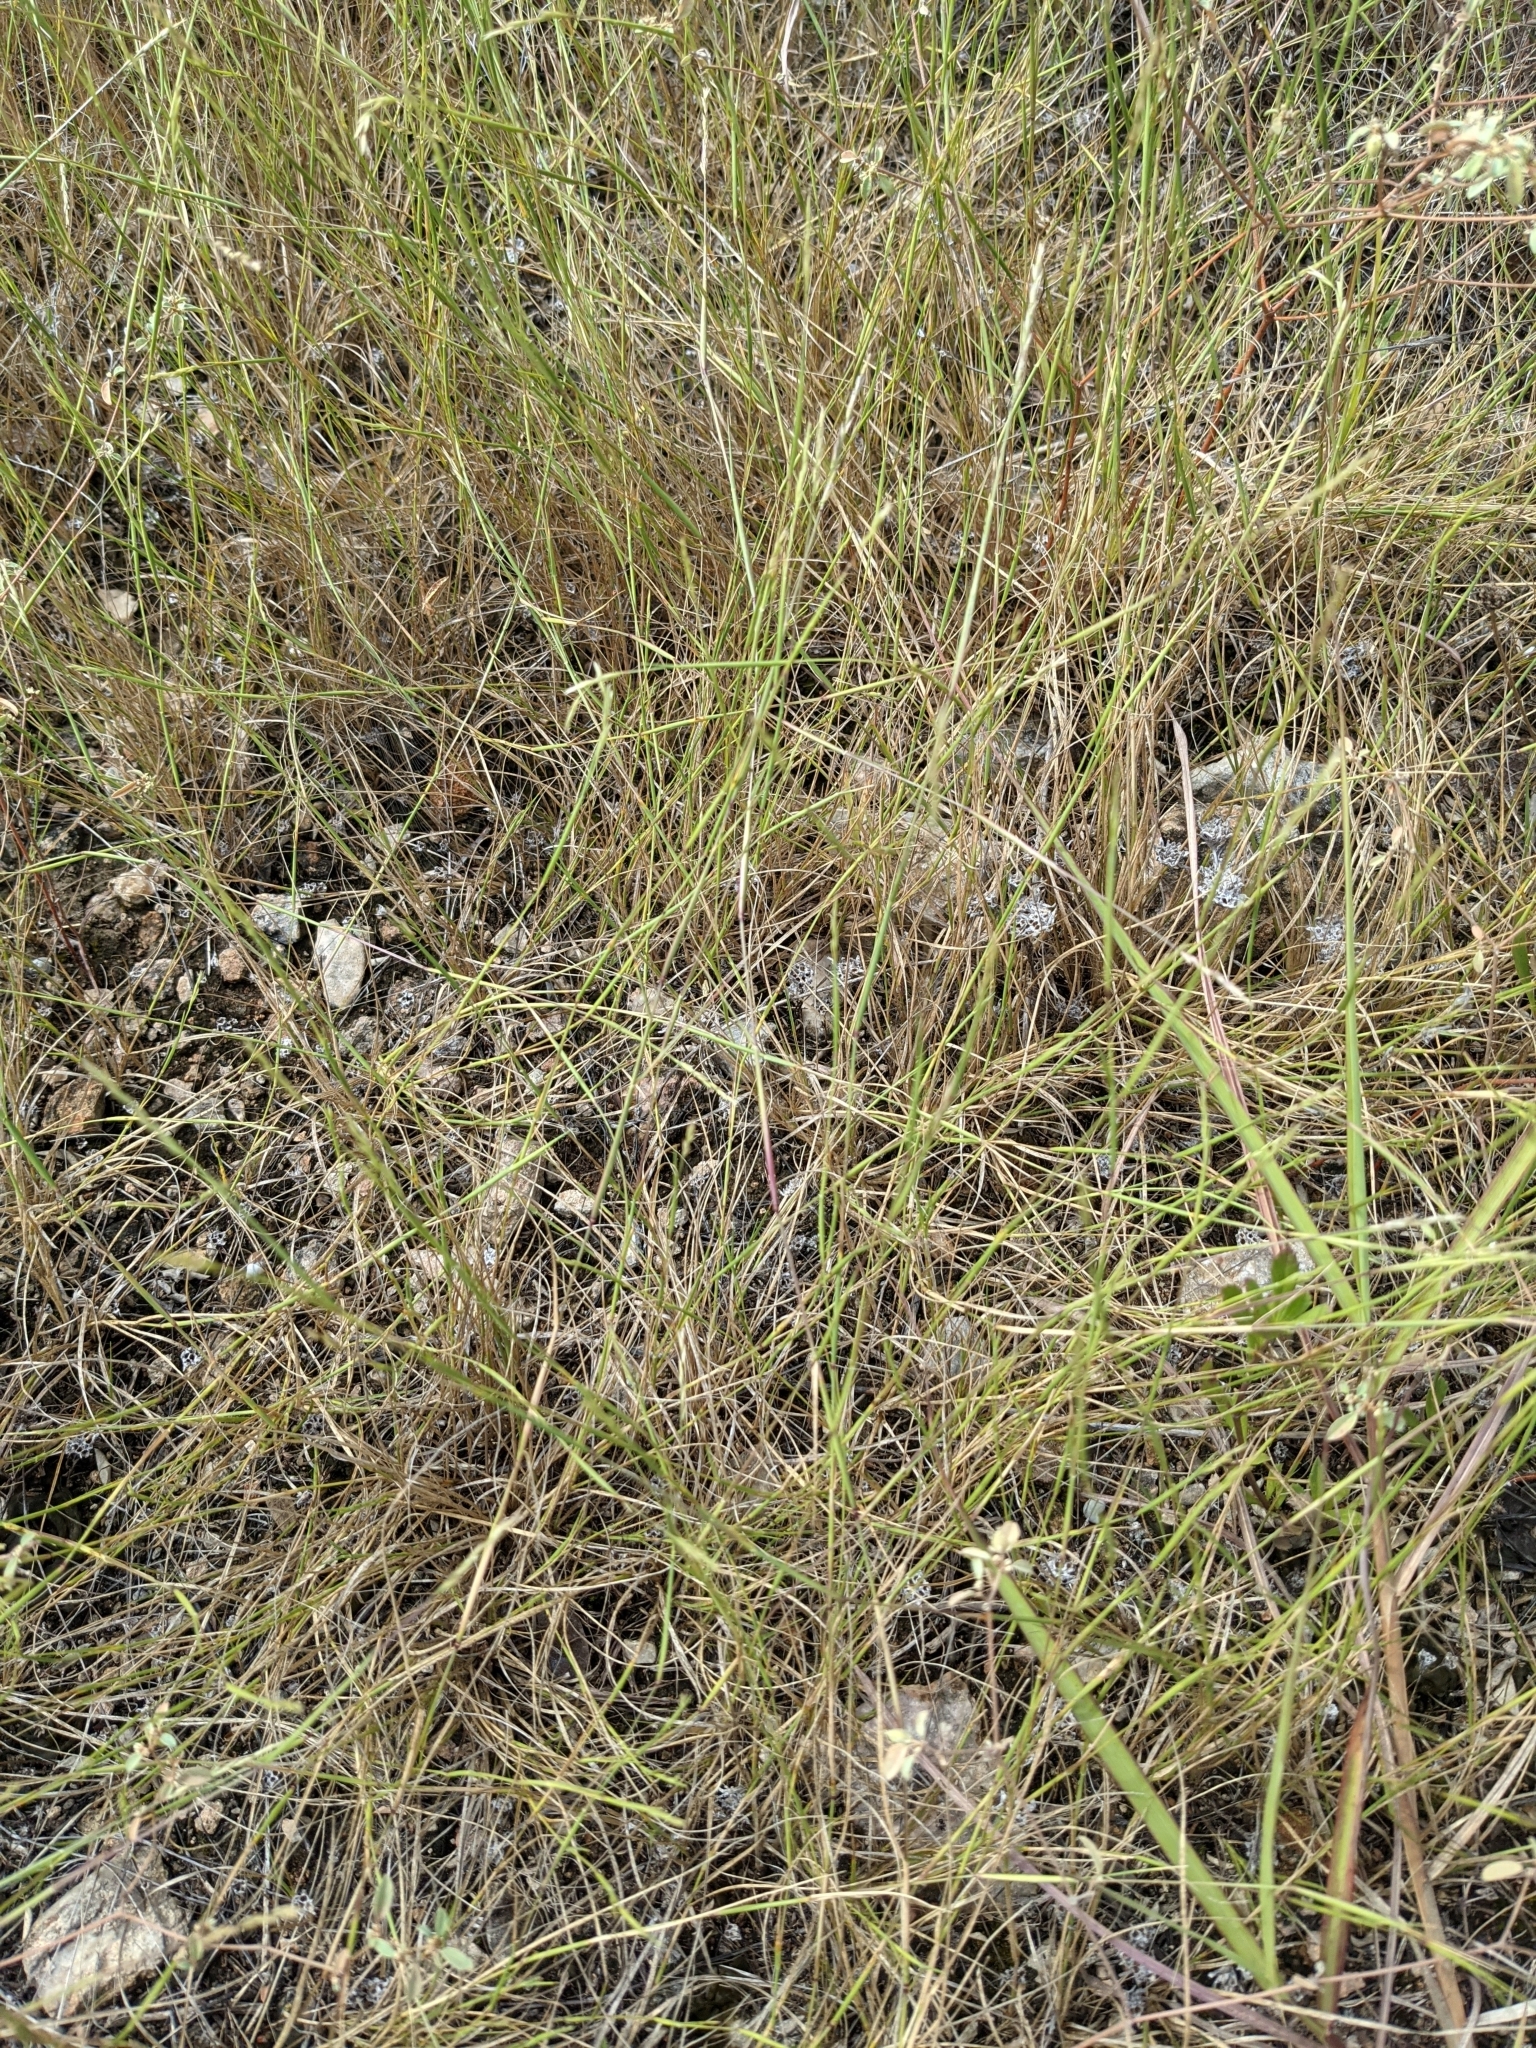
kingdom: Plantae
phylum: Tracheophyta
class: Liliopsida
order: Poales
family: Poaceae
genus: Sporobolus
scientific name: Sporobolus vaginiflorus
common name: Poverty dropseed
